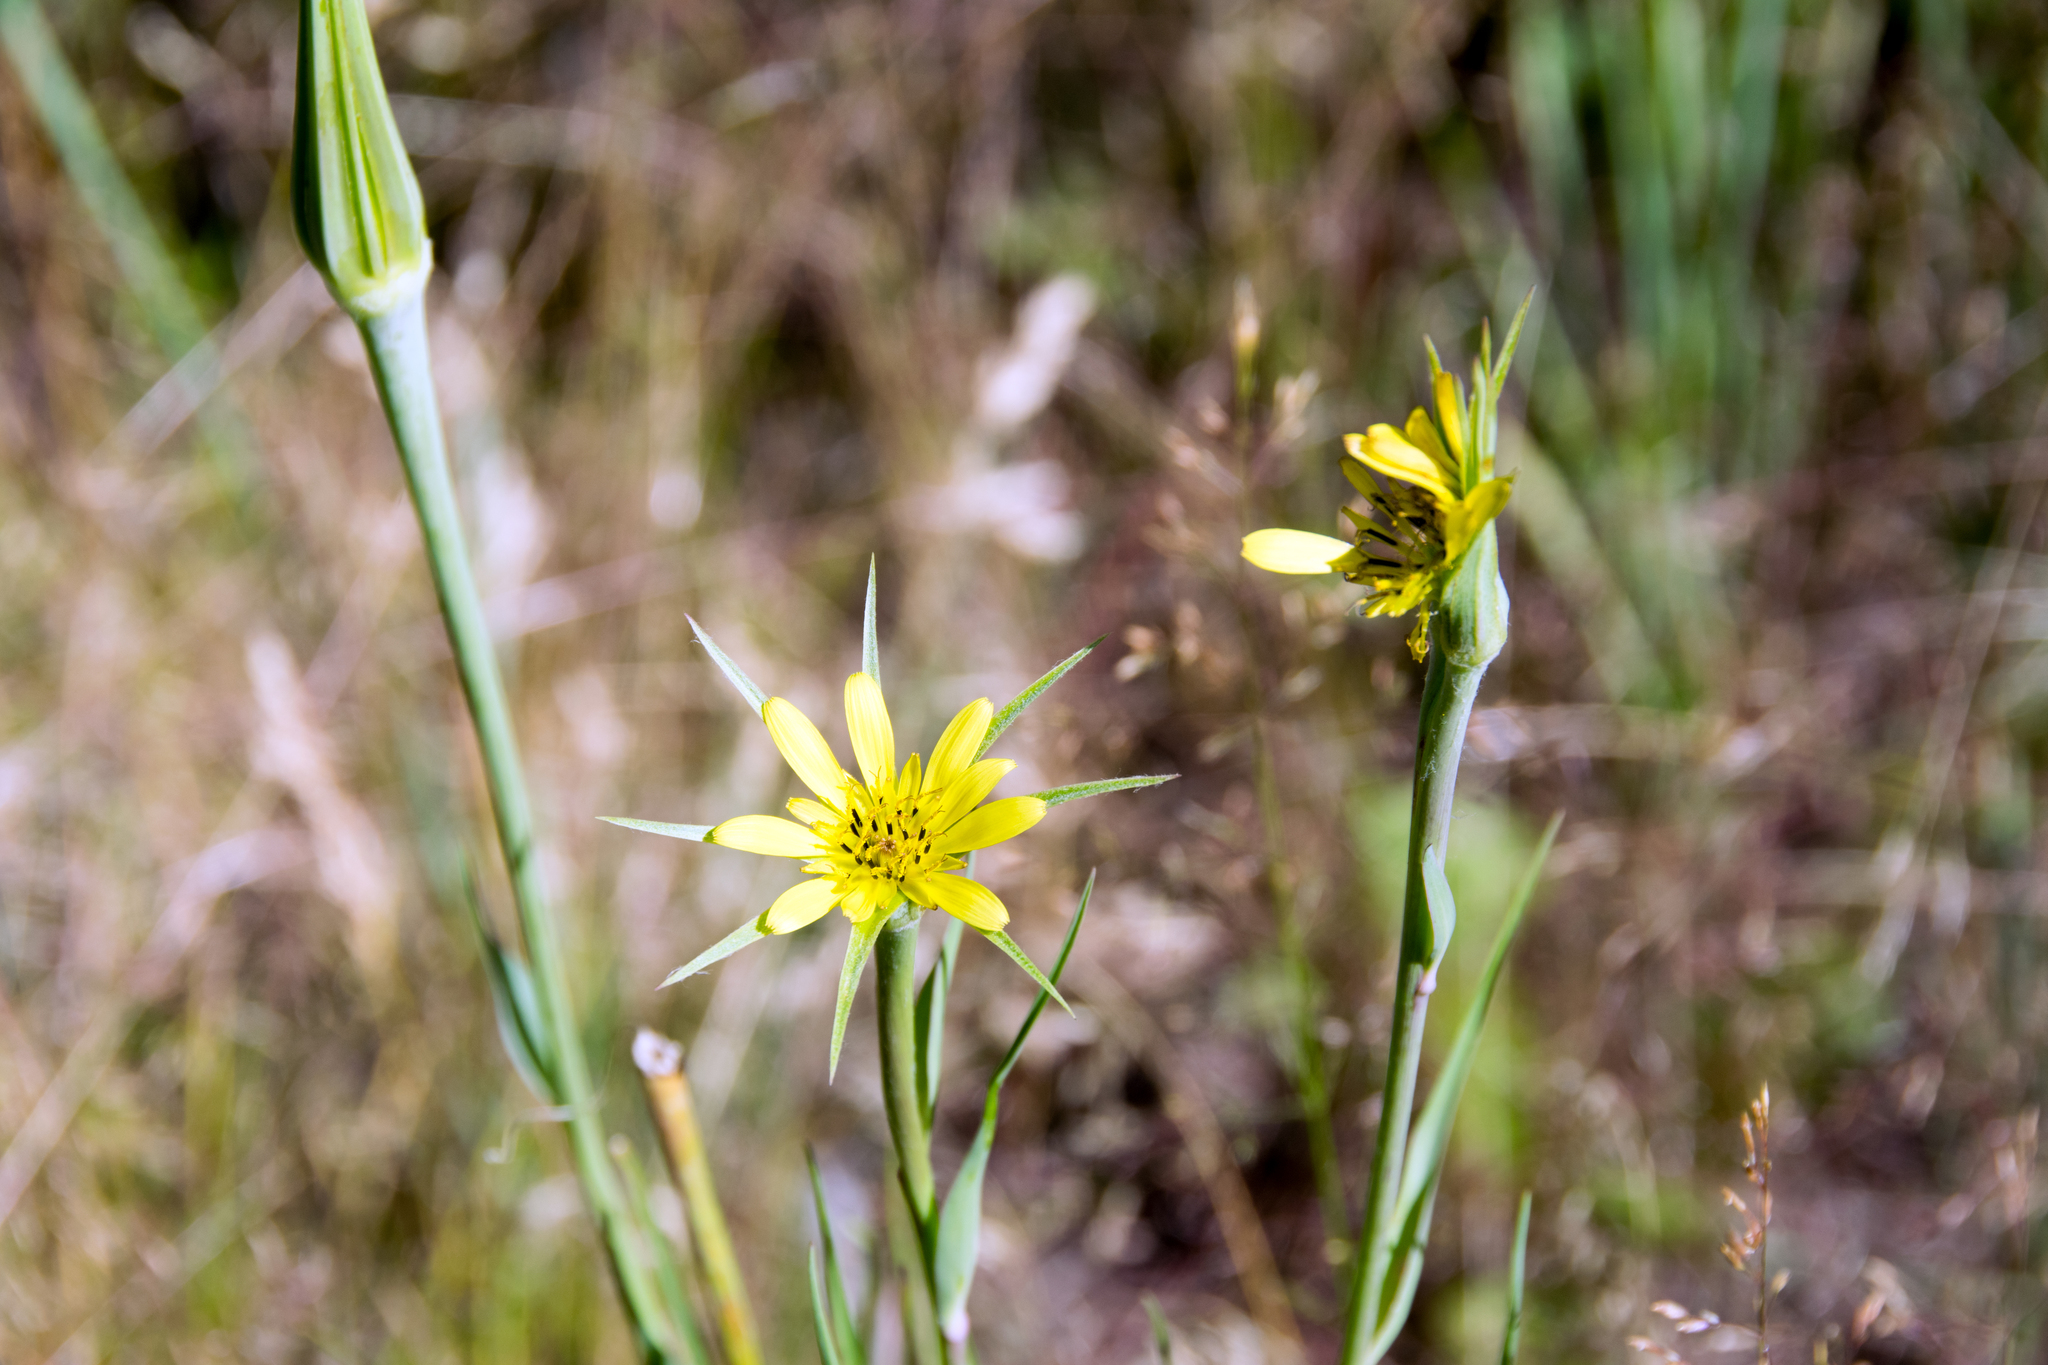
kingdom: Plantae
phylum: Tracheophyta
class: Magnoliopsida
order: Asterales
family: Asteraceae
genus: Tragopogon
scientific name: Tragopogon dubius
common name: Yellow salsify
